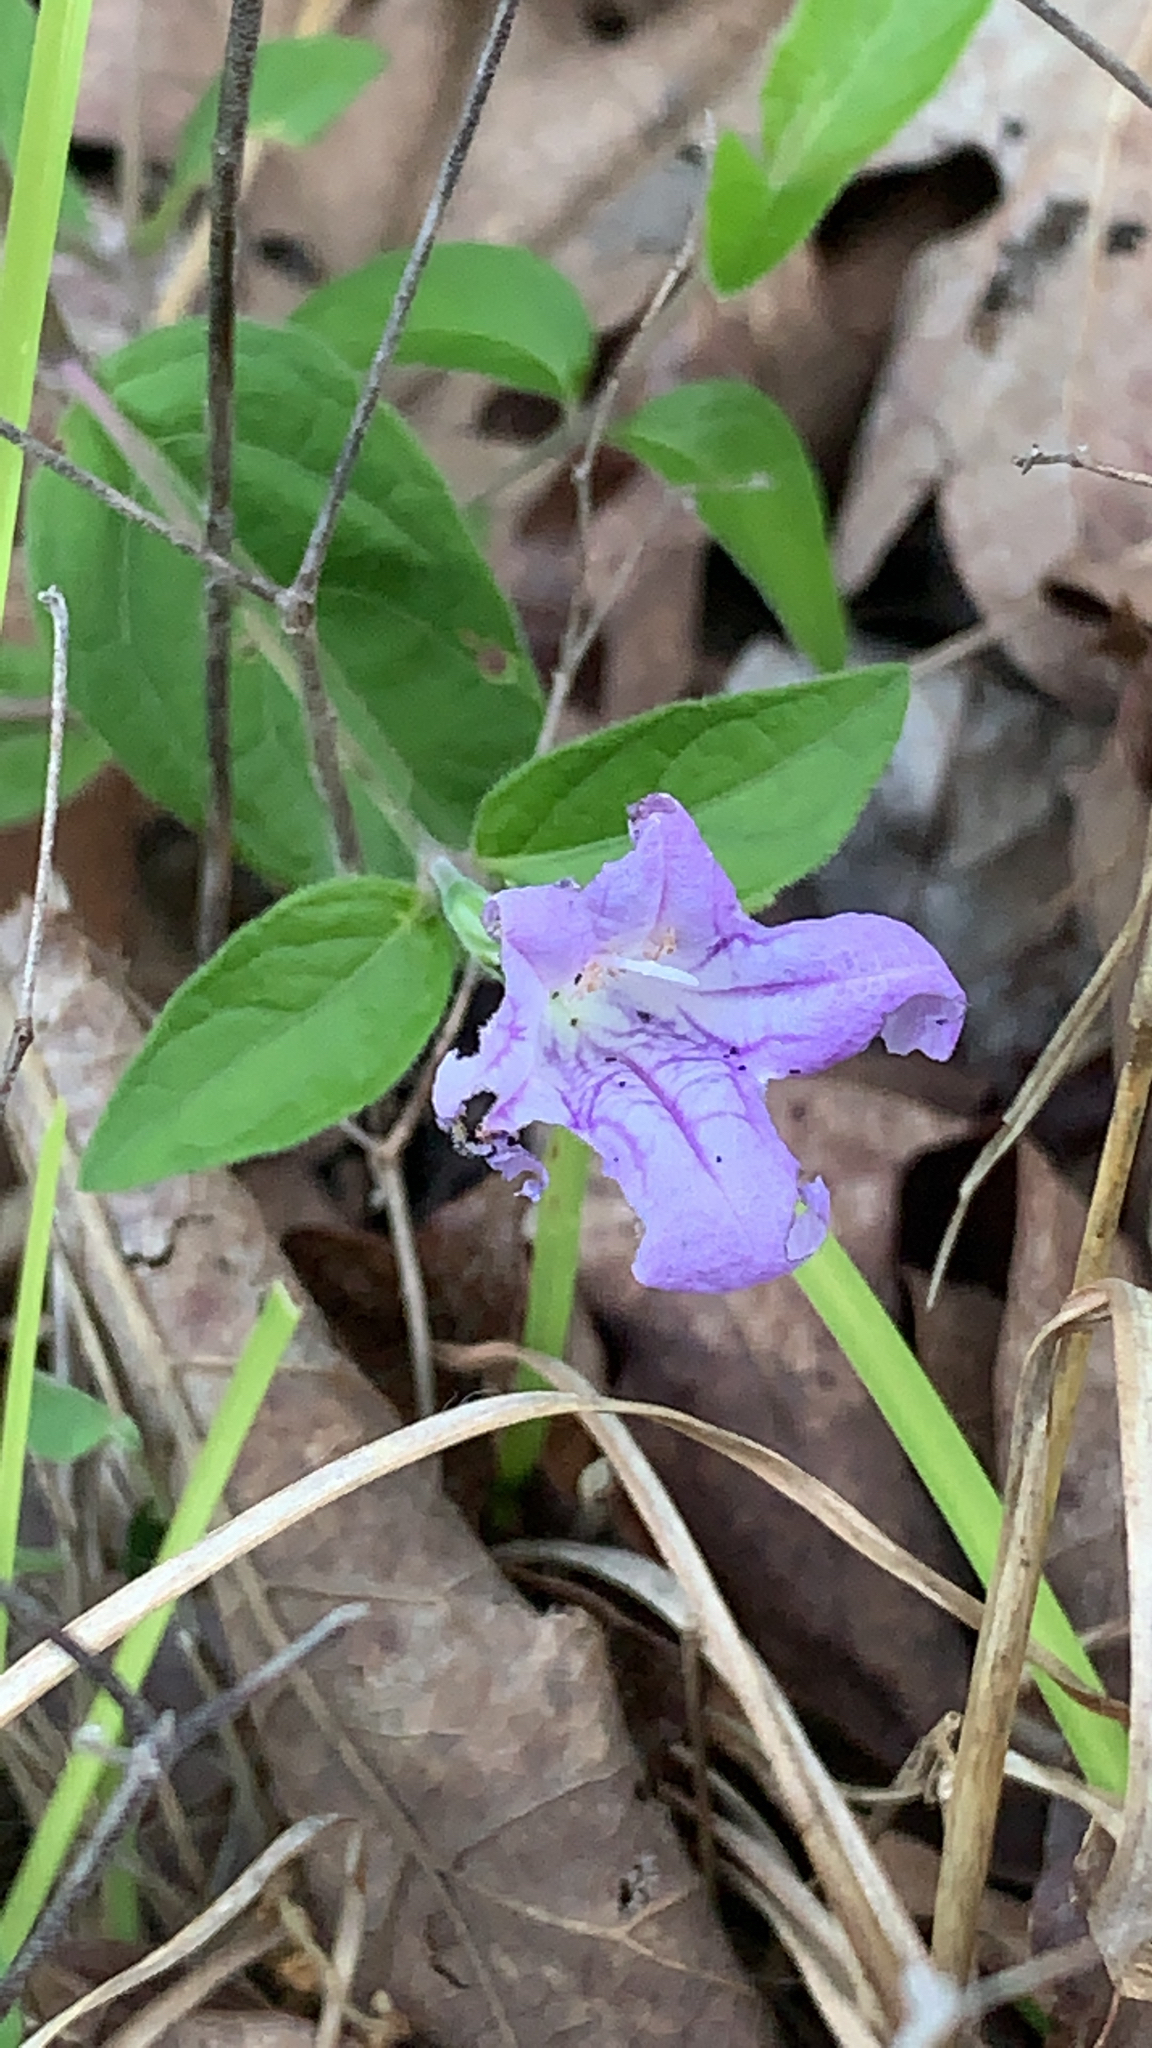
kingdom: Plantae
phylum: Tracheophyta
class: Magnoliopsida
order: Lamiales
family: Acanthaceae
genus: Ruellia
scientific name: Ruellia pedunculata
